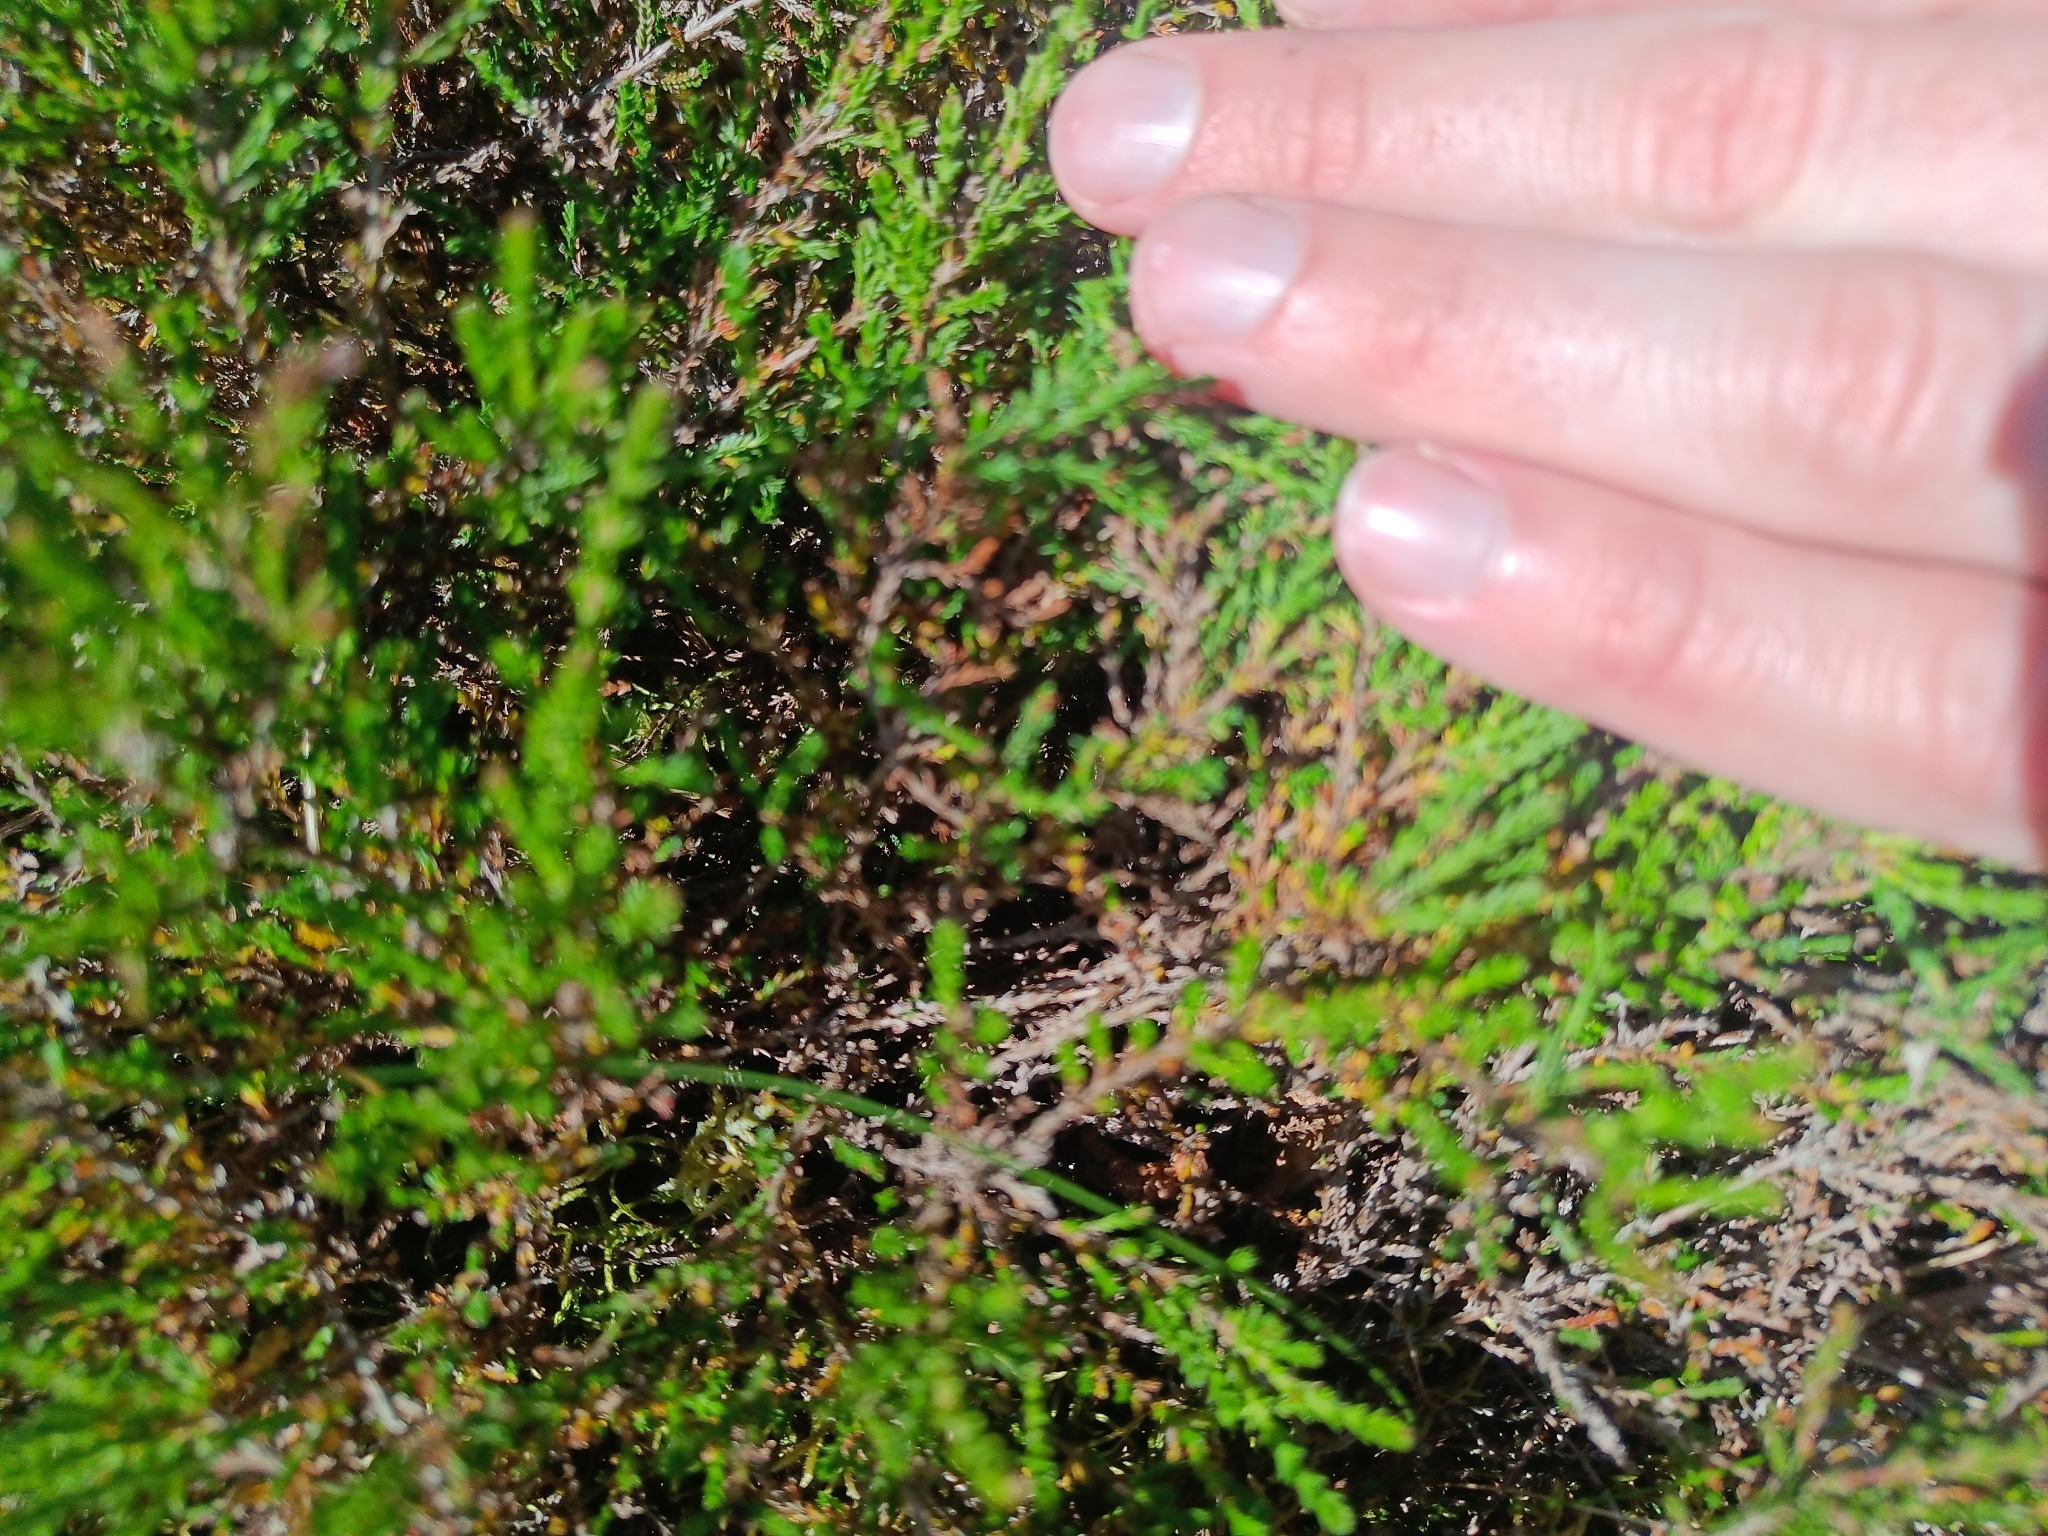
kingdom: Plantae
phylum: Tracheophyta
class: Magnoliopsida
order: Ericales
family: Ericaceae
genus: Calluna
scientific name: Calluna vulgaris
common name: Heather
